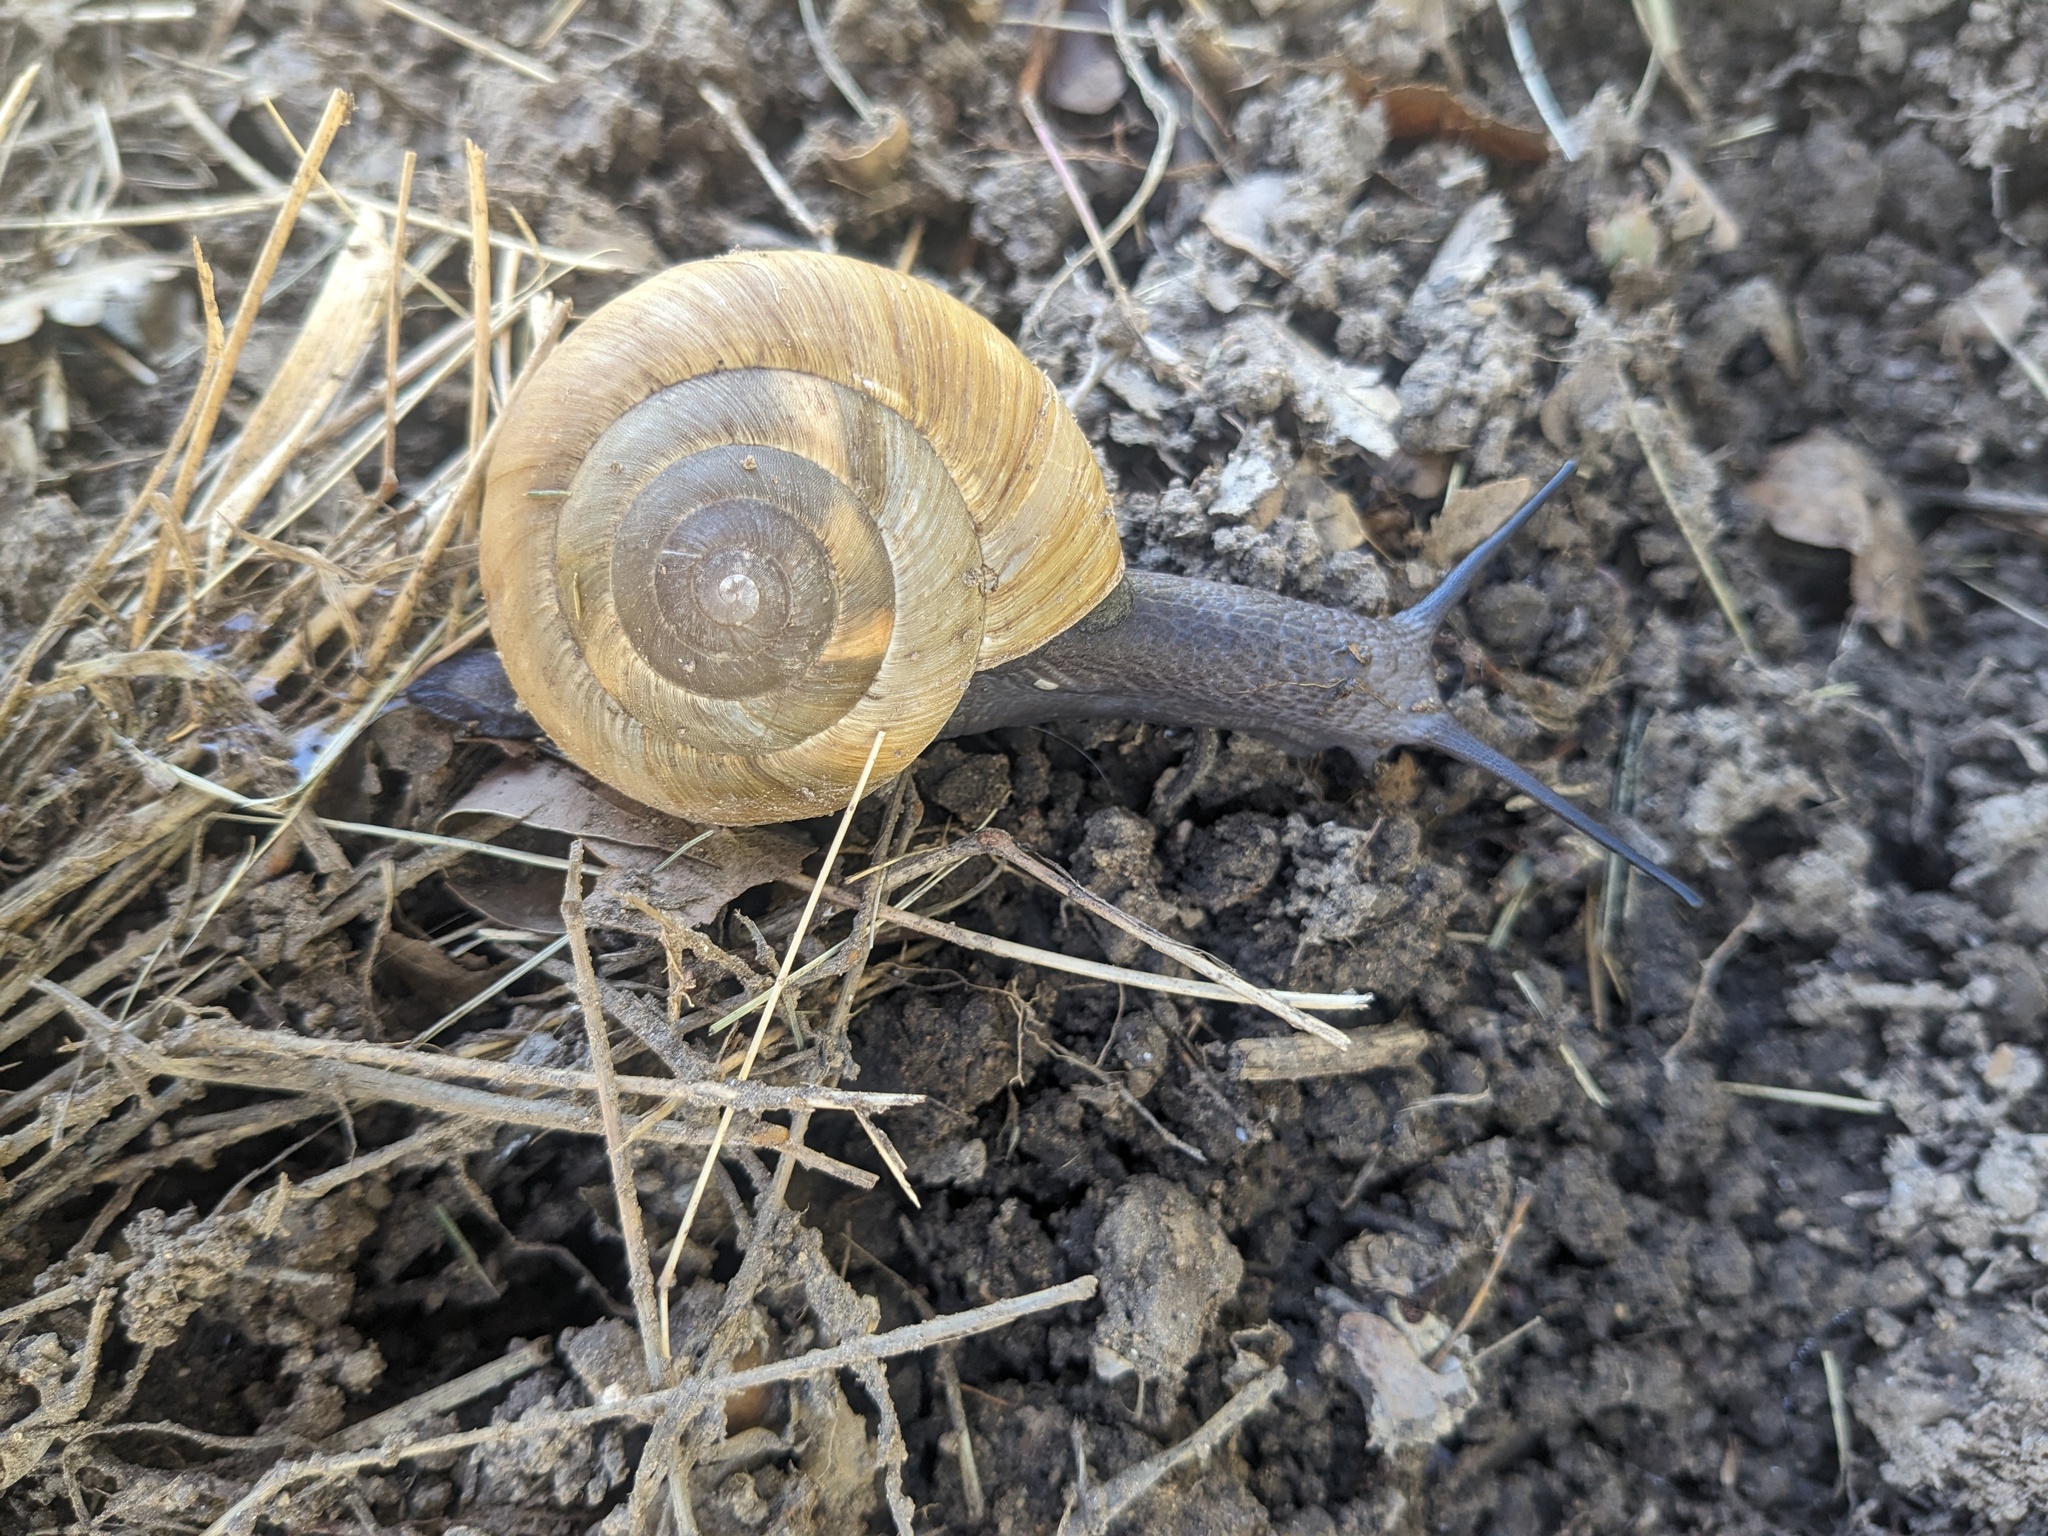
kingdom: Animalia
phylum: Mollusca
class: Gastropoda
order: Stylommatophora
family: Zonitidae
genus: Zonites
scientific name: Zonites algirus
